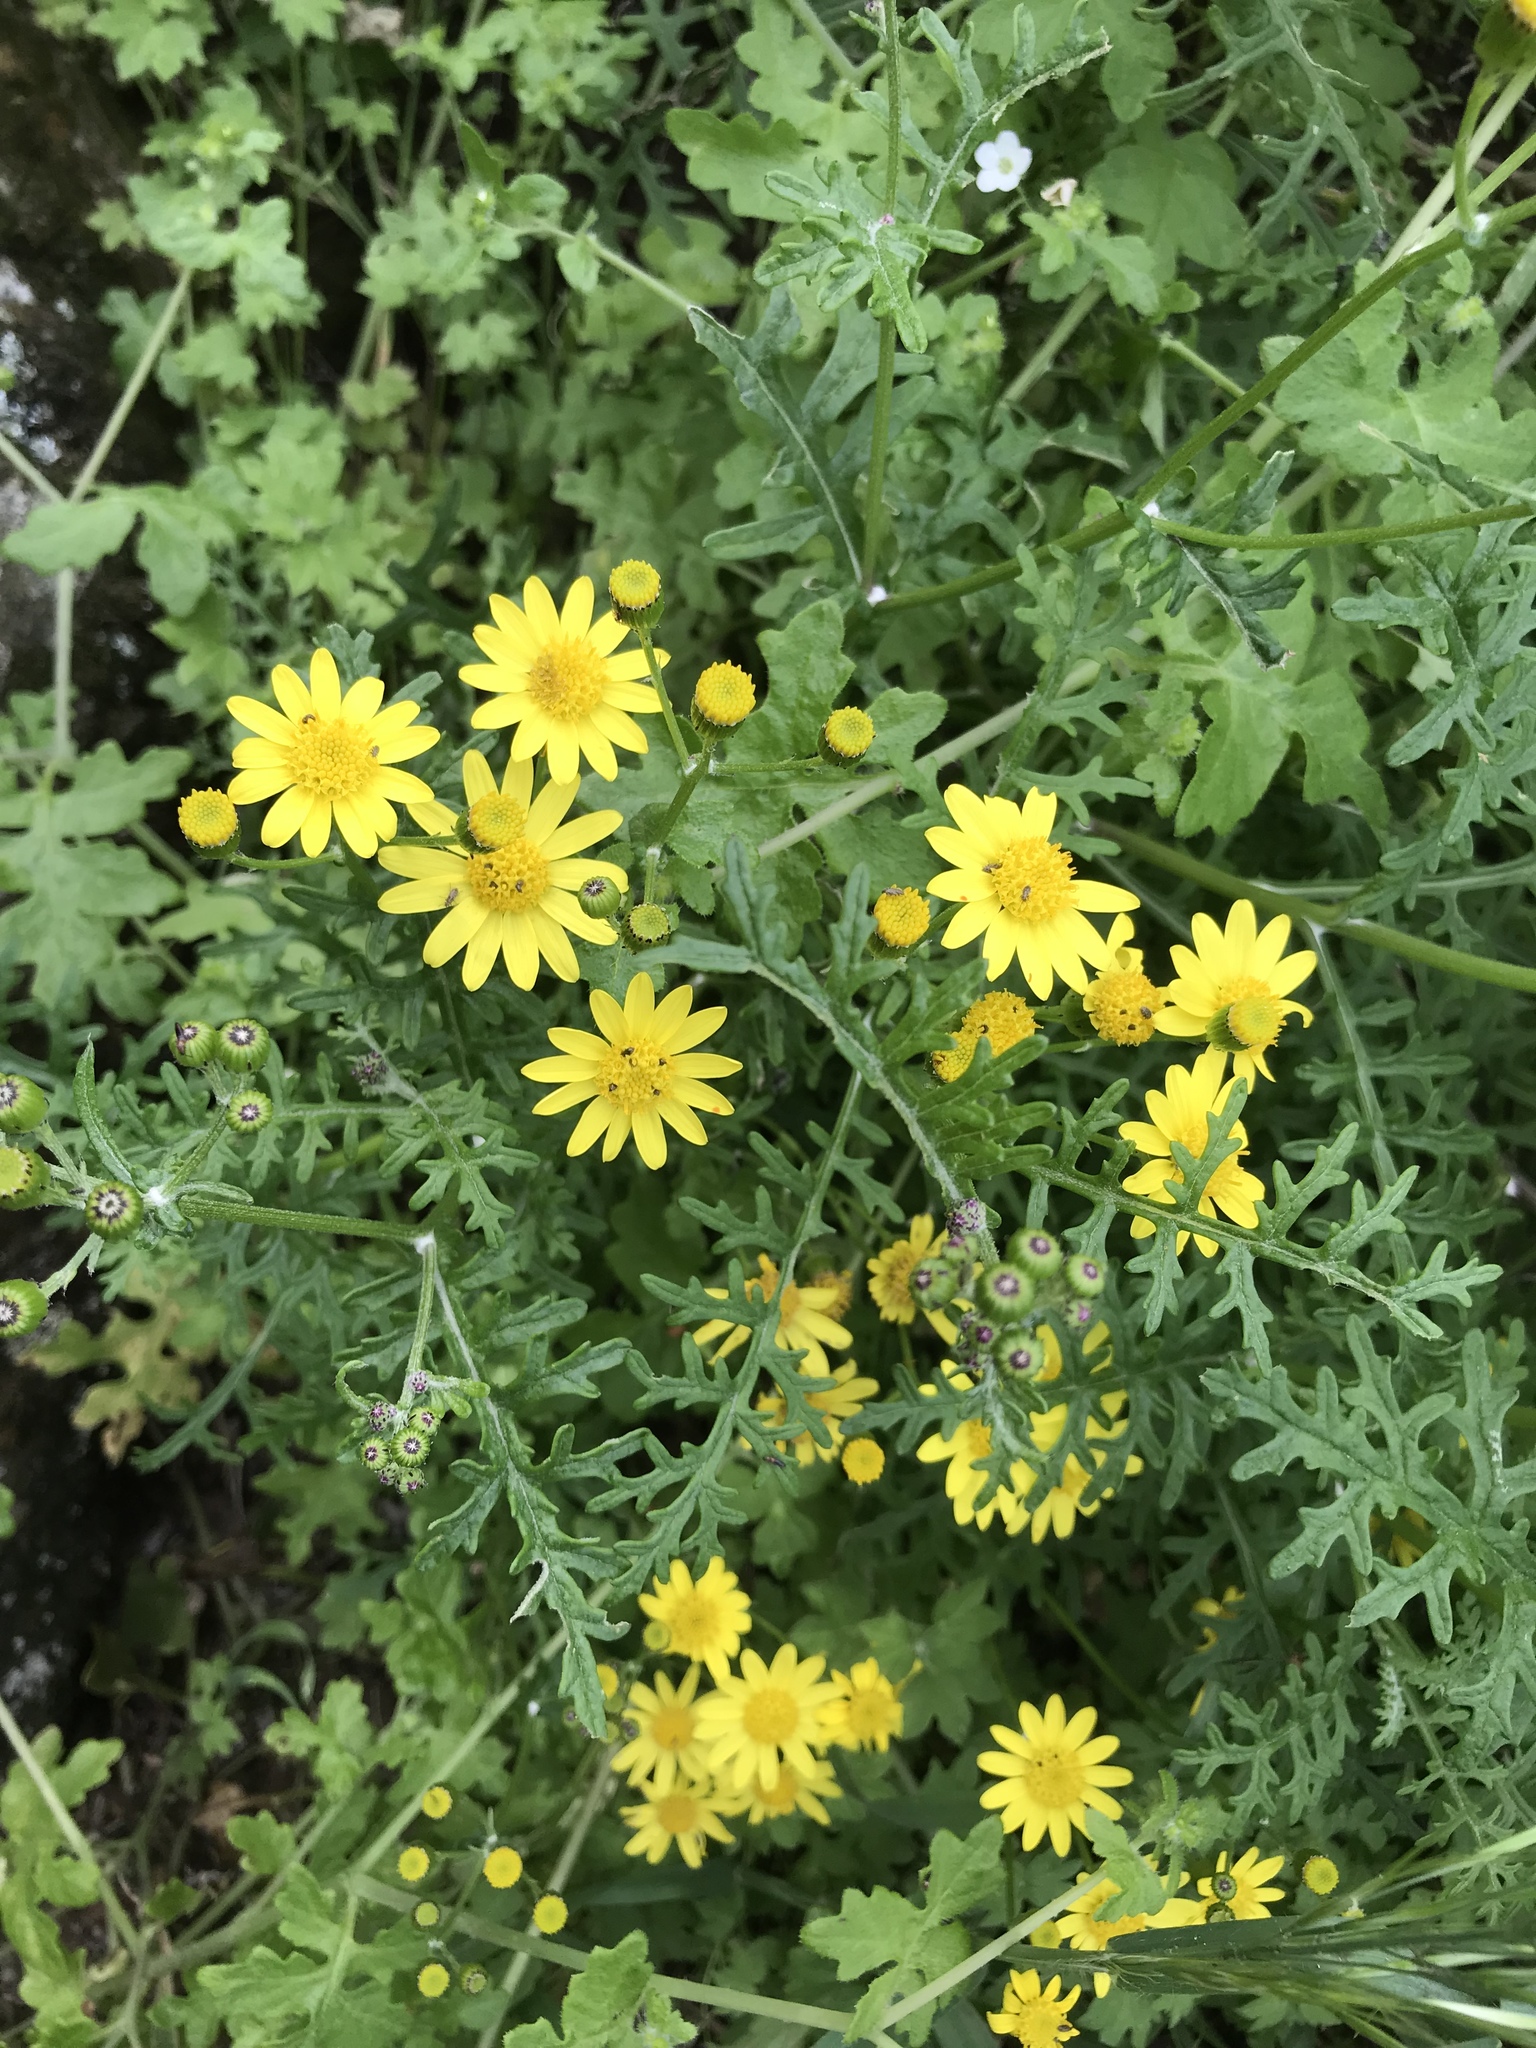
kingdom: Plantae
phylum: Tracheophyta
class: Magnoliopsida
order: Asterales
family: Asteraceae
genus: Senecio
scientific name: Senecio lyonii
